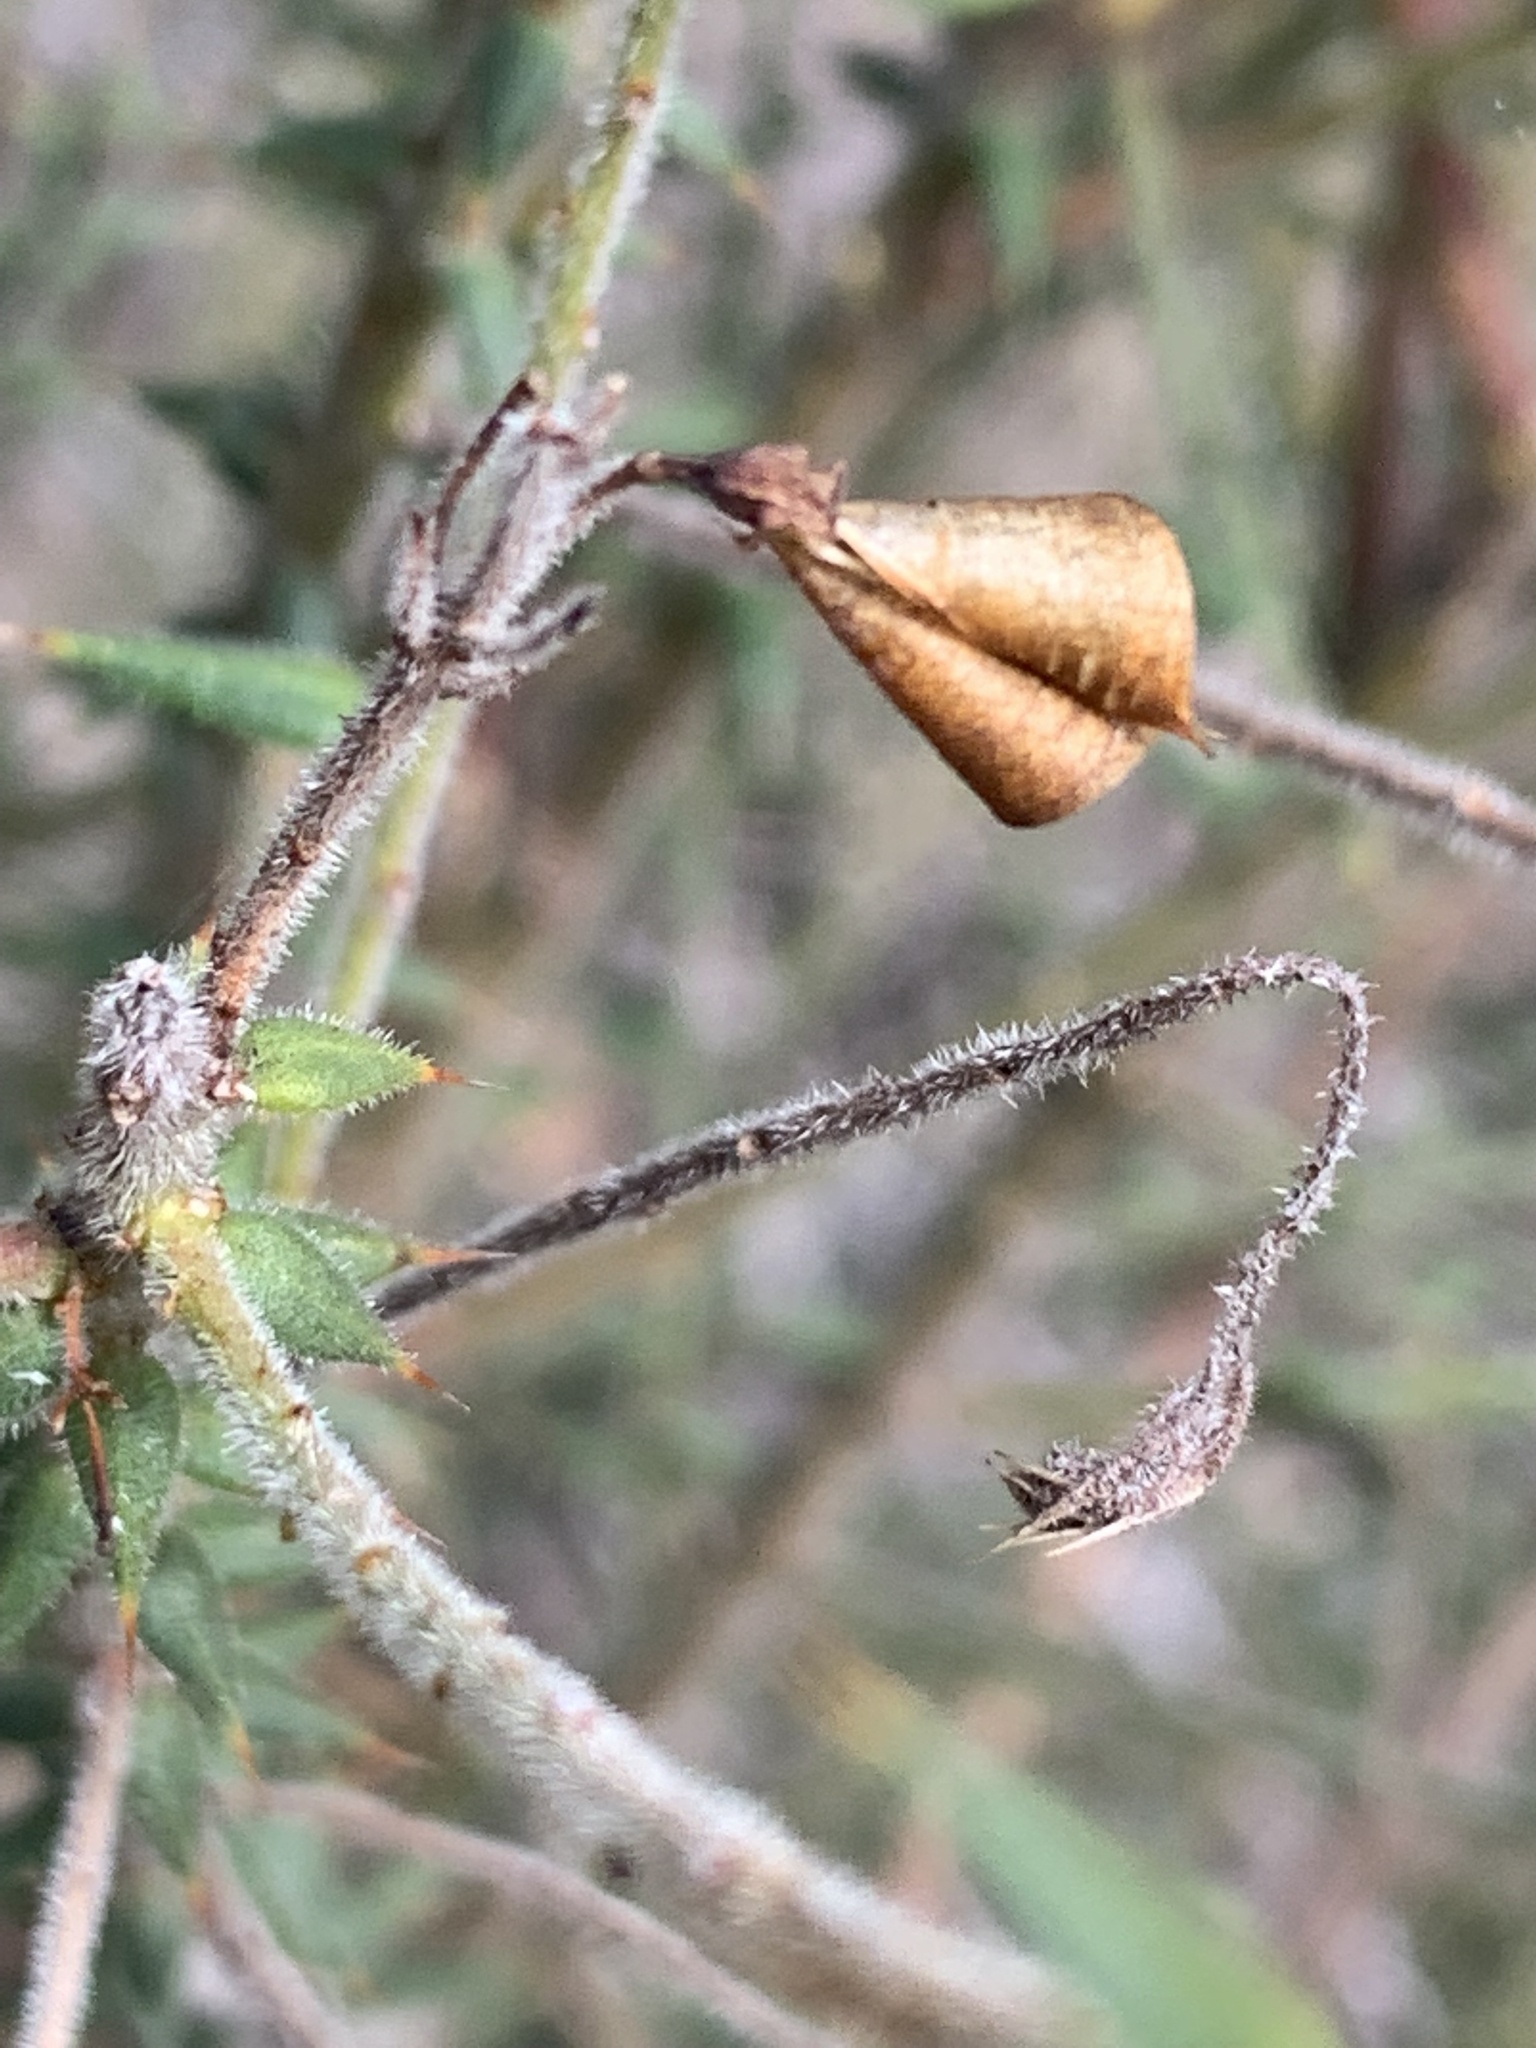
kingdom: Plantae
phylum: Tracheophyta
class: Magnoliopsida
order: Fabales
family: Fabaceae
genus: Daviesia
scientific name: Daviesia pubigera
